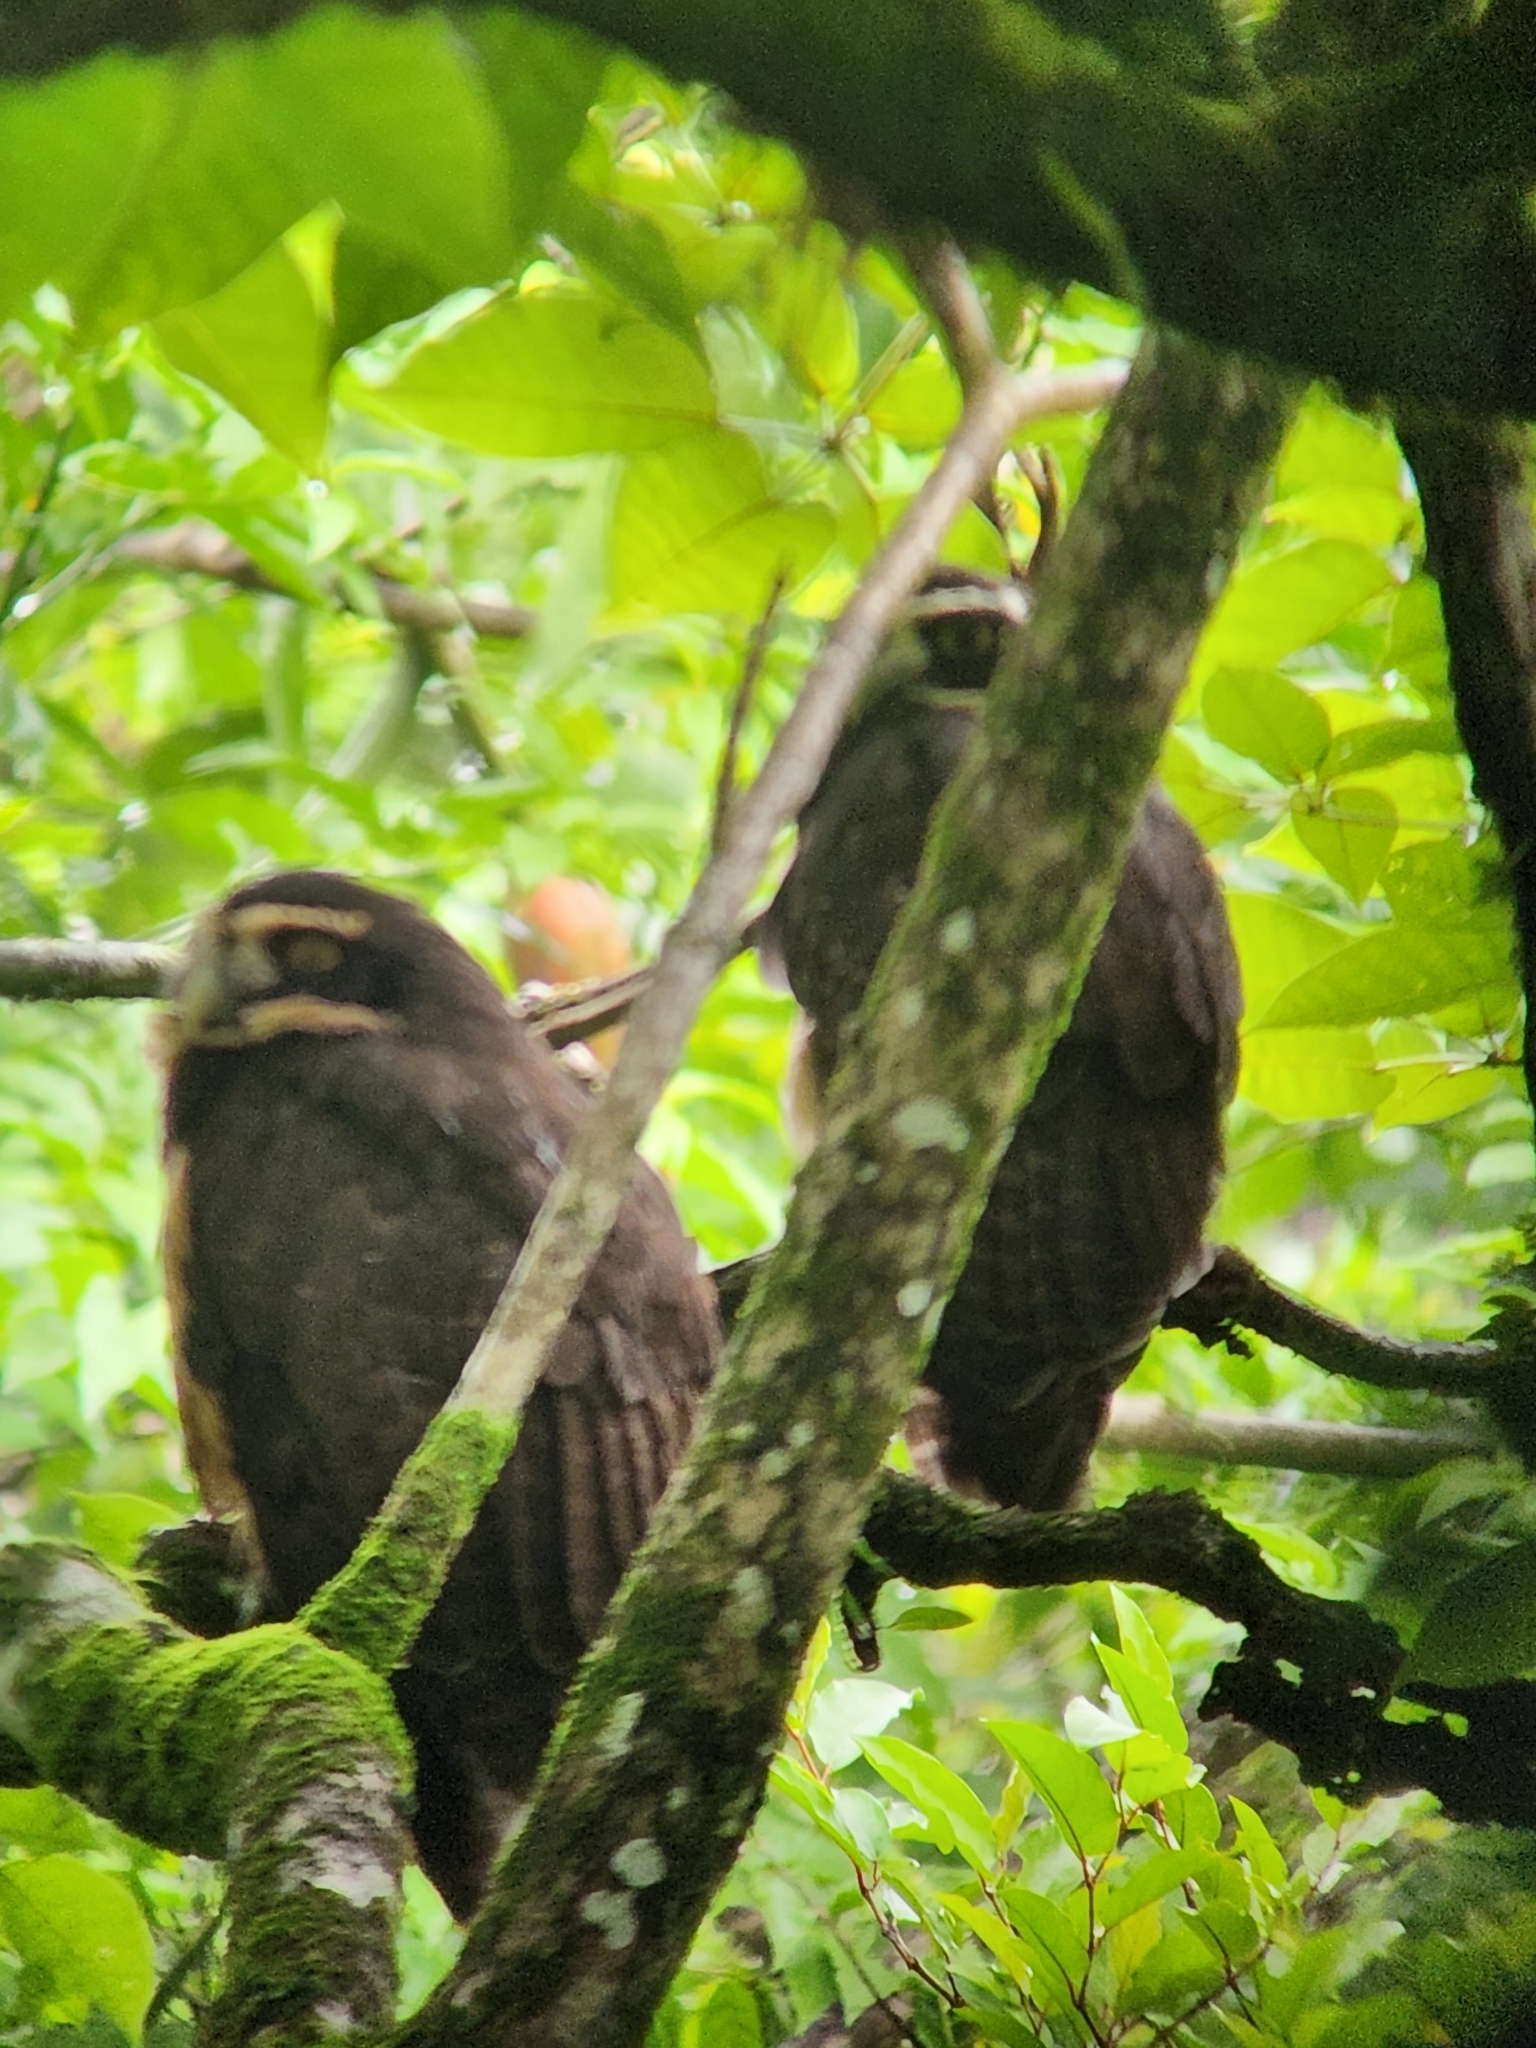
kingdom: Animalia
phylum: Chordata
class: Aves
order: Strigiformes
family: Strigidae
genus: Pulsatrix
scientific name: Pulsatrix perspicillata
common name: Spectacled owl
